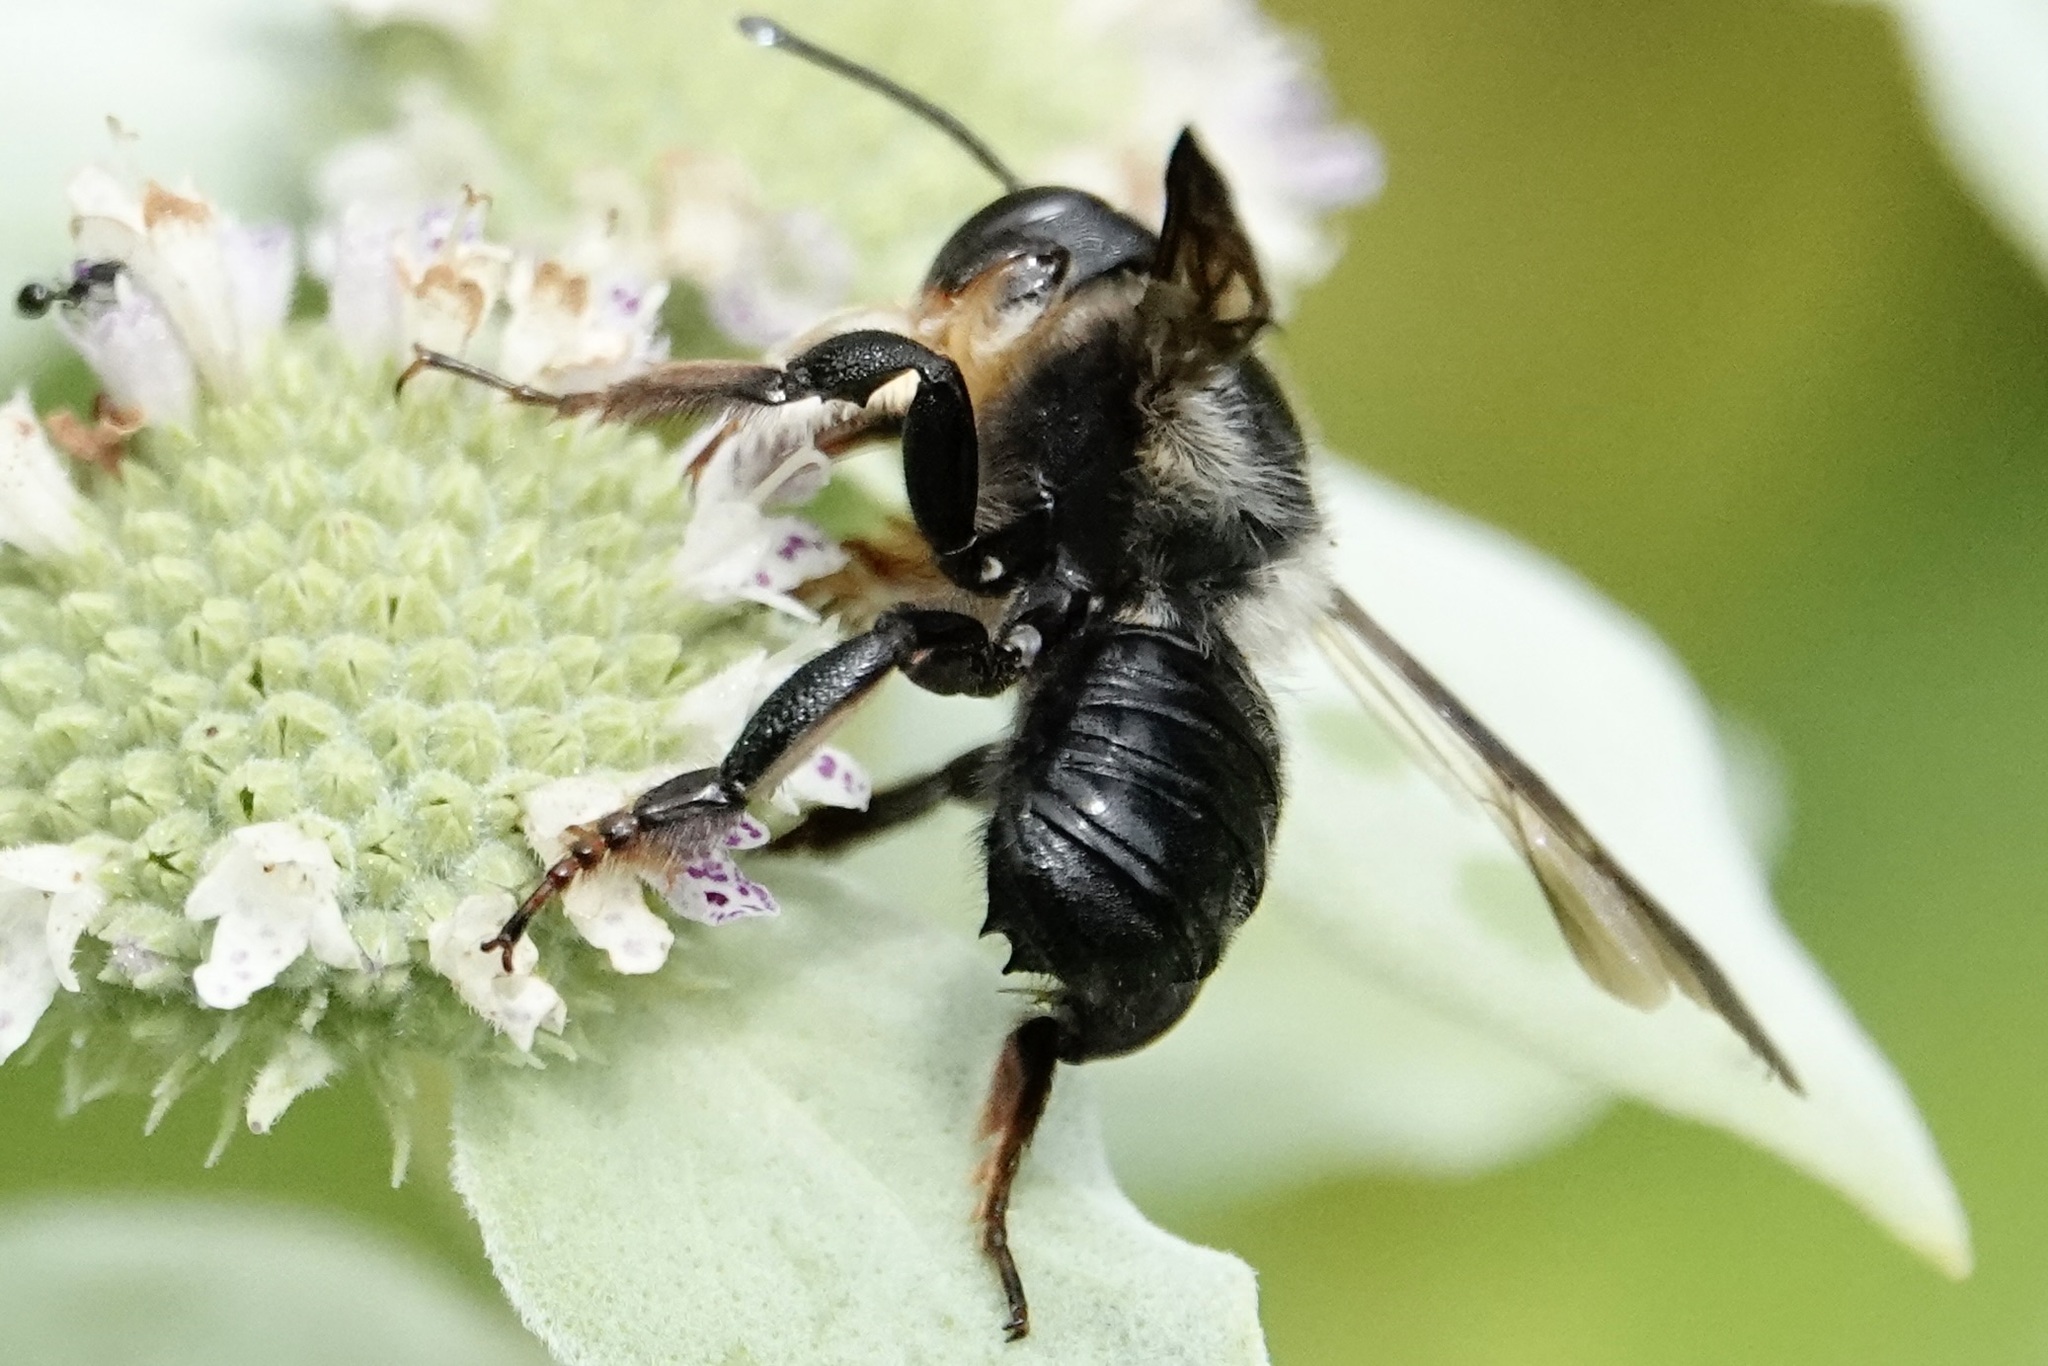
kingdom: Animalia
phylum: Arthropoda
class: Insecta
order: Hymenoptera
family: Megachilidae
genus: Megachile
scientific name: Megachile xylocopoides
